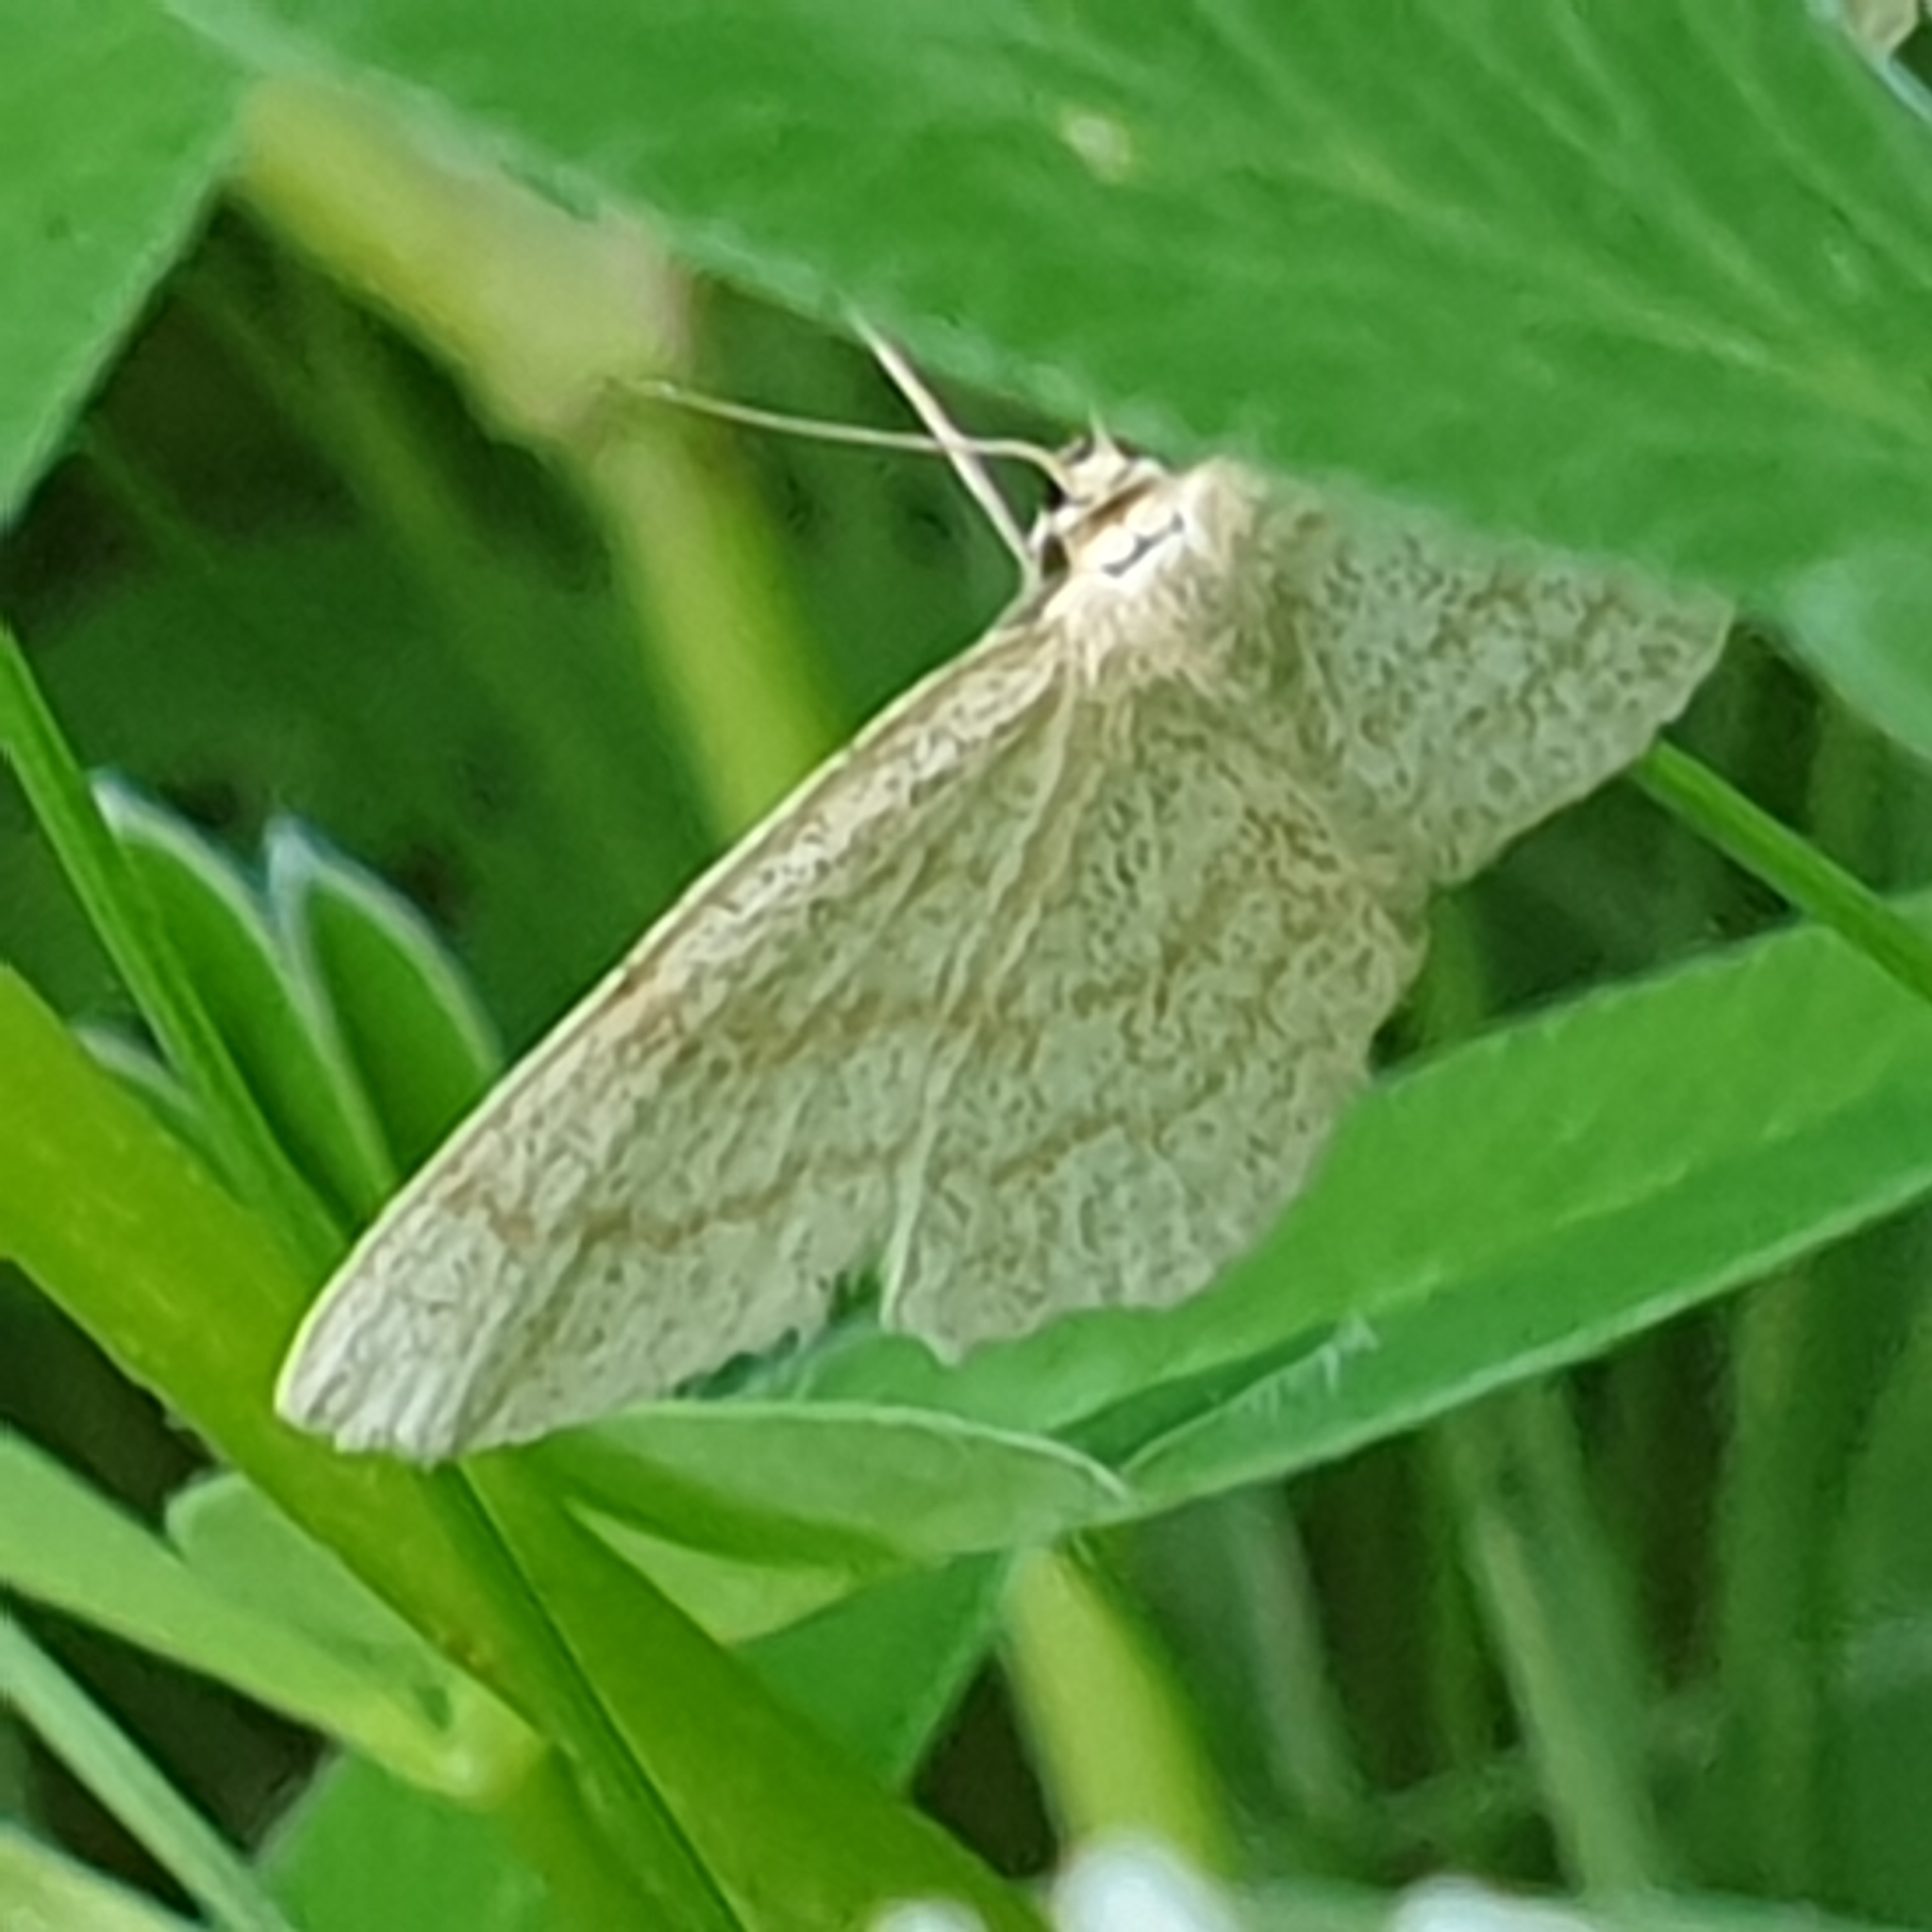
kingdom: Animalia
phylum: Arthropoda
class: Insecta
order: Lepidoptera
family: Geometridae
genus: Scopula
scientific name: Scopula ternata
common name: Smoky wave
